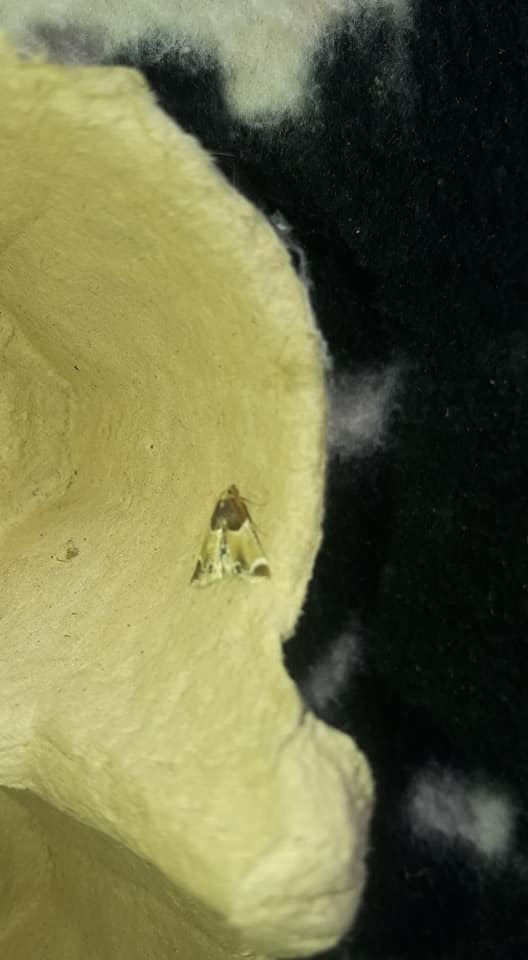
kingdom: Animalia
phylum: Arthropoda
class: Insecta
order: Lepidoptera
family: Pyralidae
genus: Pyralis
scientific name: Pyralis farinalis
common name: Meal moth
